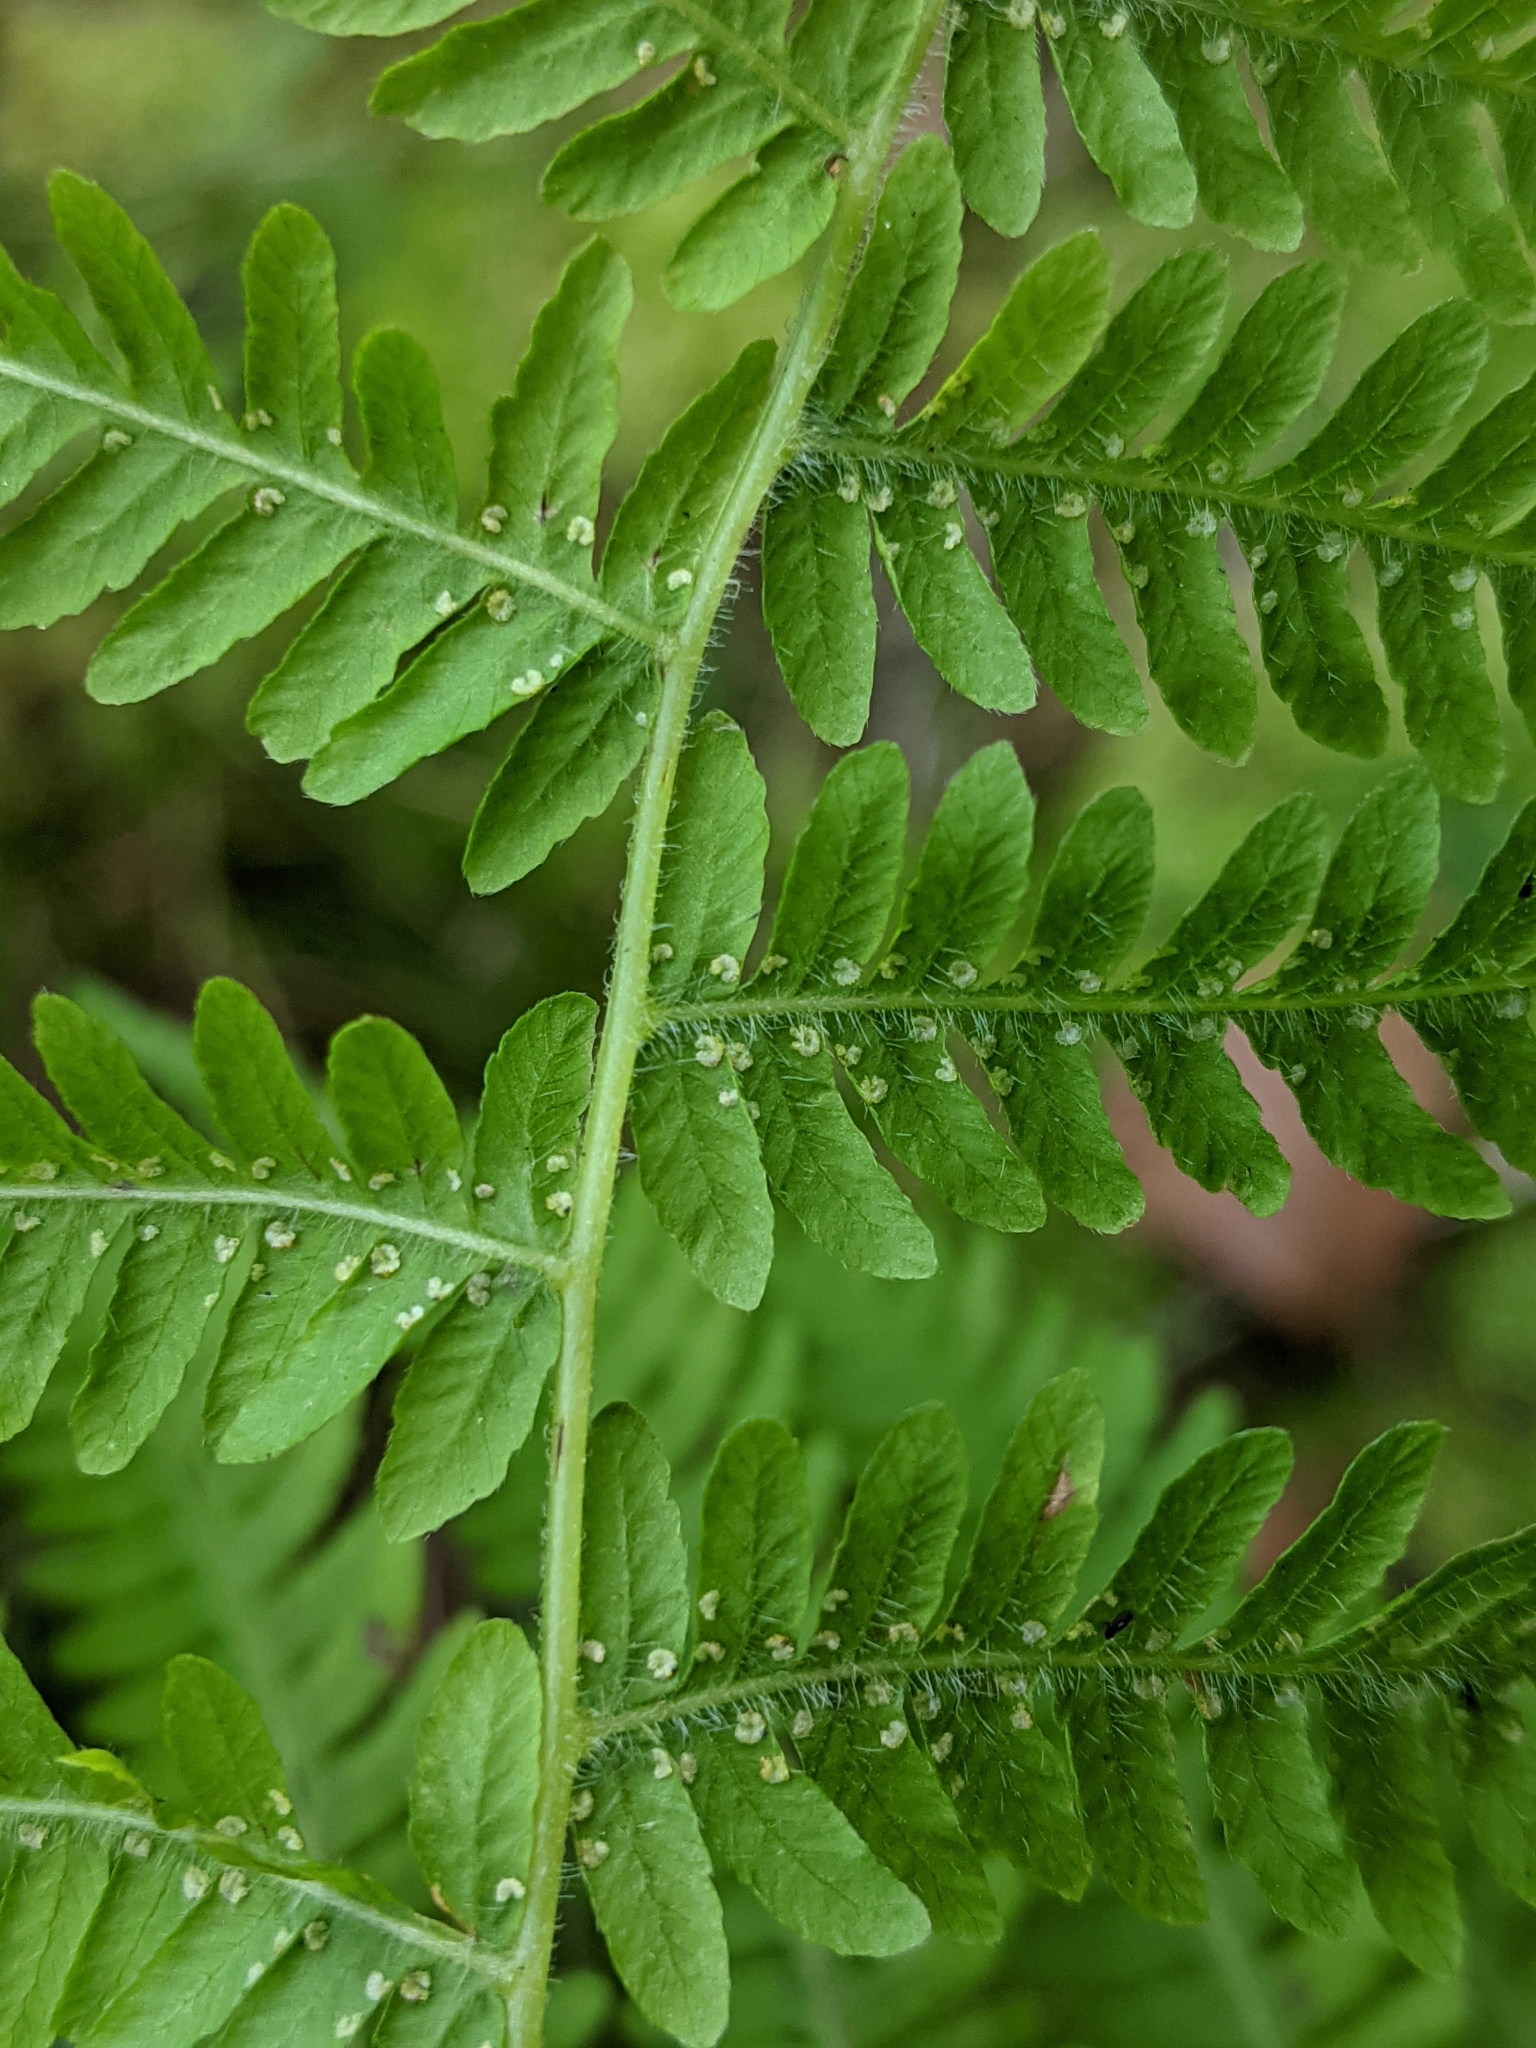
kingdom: Plantae
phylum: Tracheophyta
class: Polypodiopsida
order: Polypodiales
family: Thelypteridaceae
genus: Amauropelta
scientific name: Amauropelta noveboracensis
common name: New york fern
